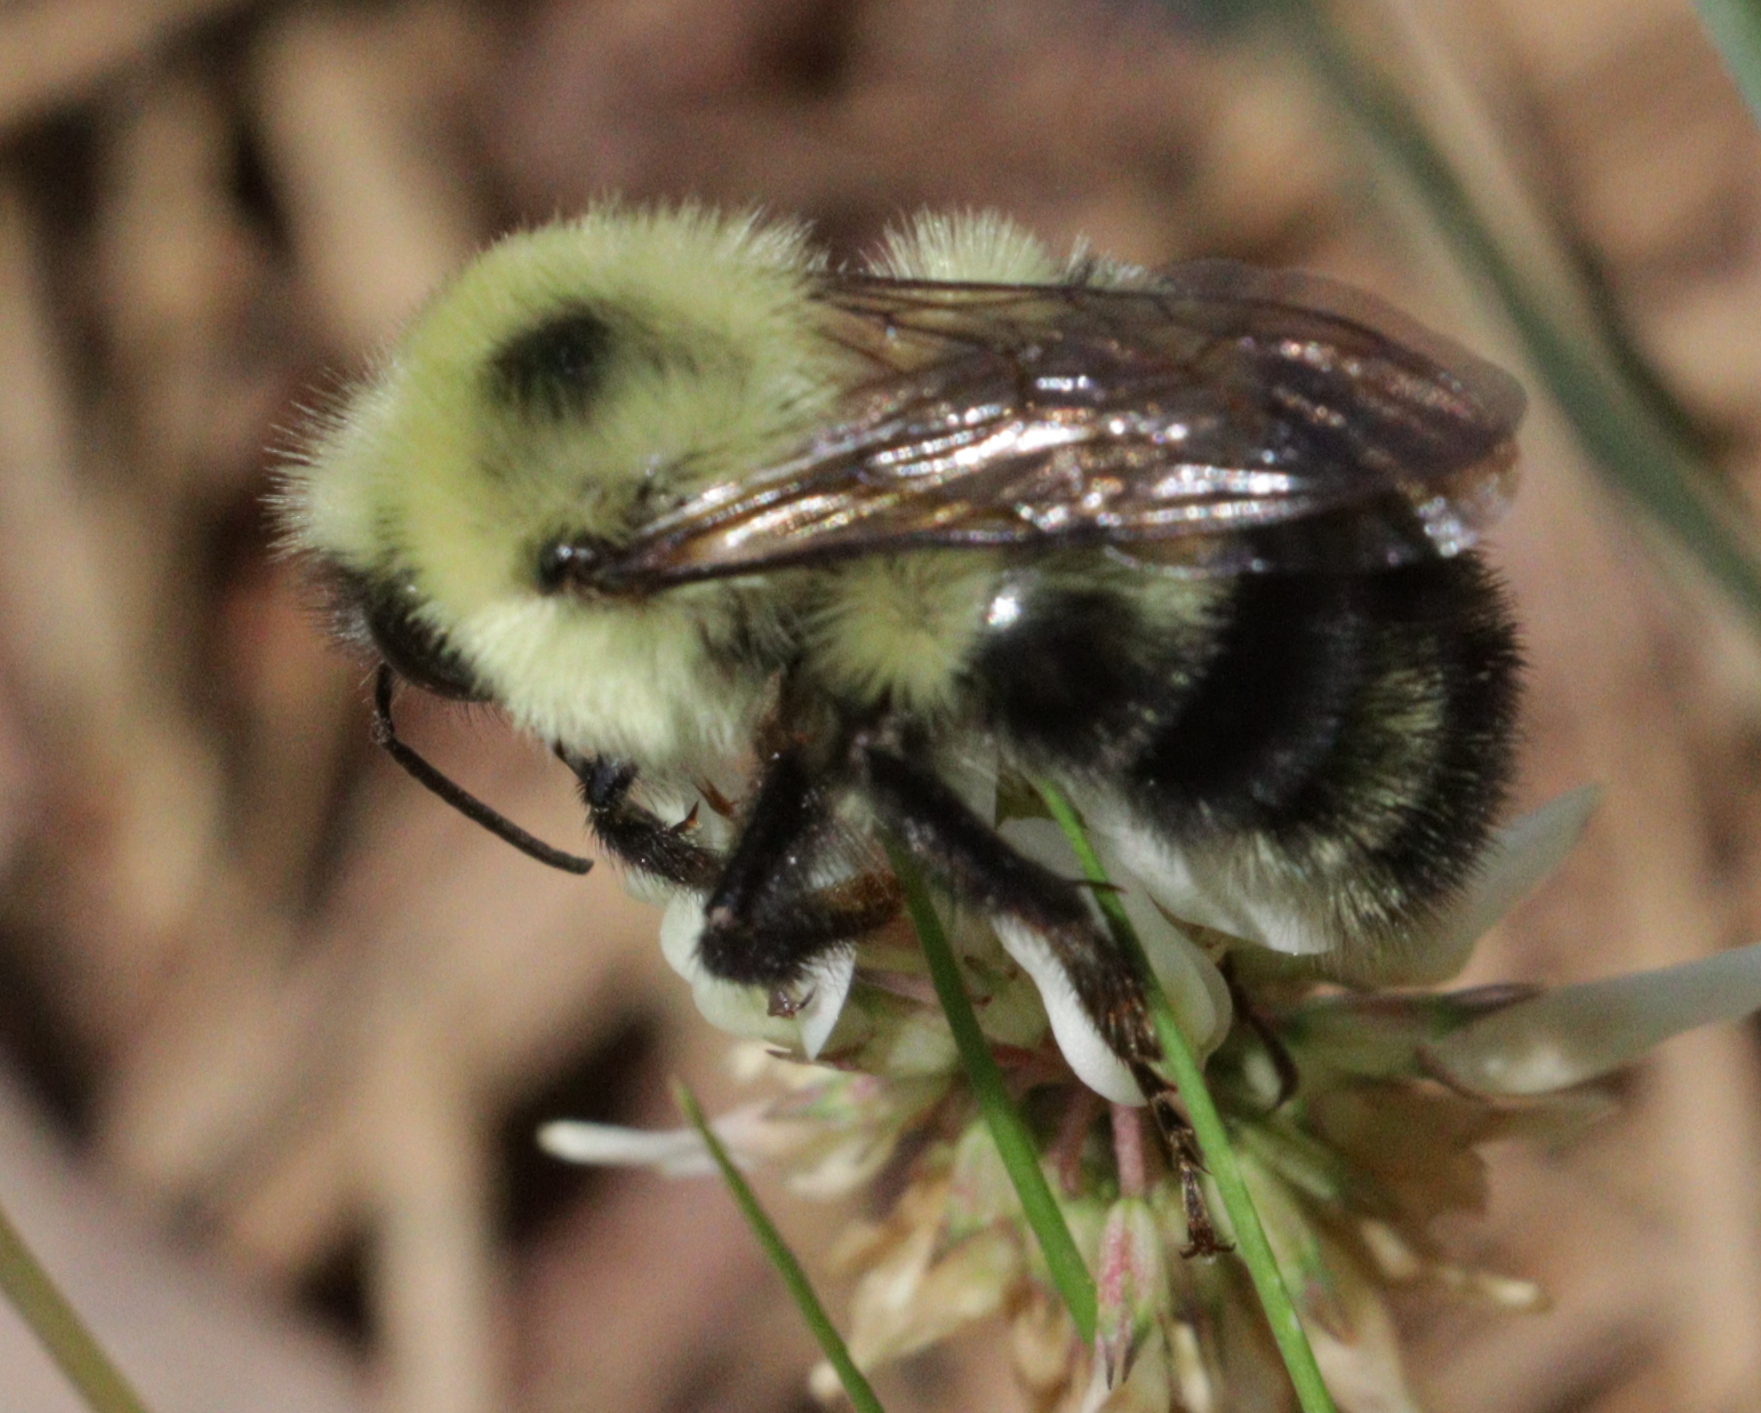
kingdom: Animalia
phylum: Arthropoda
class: Insecta
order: Hymenoptera
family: Apidae
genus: Bombus
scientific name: Bombus bimaculatus
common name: Two-spotted bumble bee
